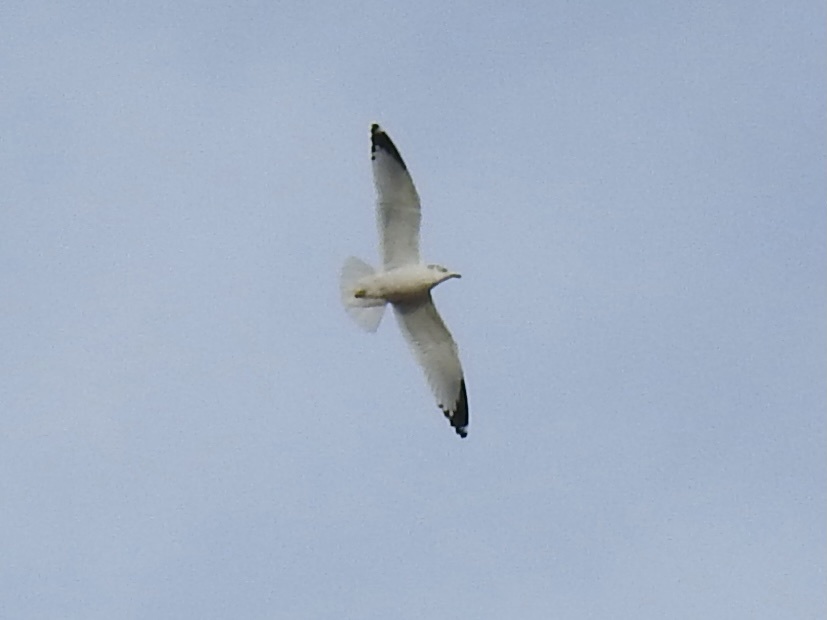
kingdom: Animalia
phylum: Chordata
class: Aves
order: Charadriiformes
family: Laridae
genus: Larus
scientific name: Larus delawarensis
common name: Ring-billed gull
